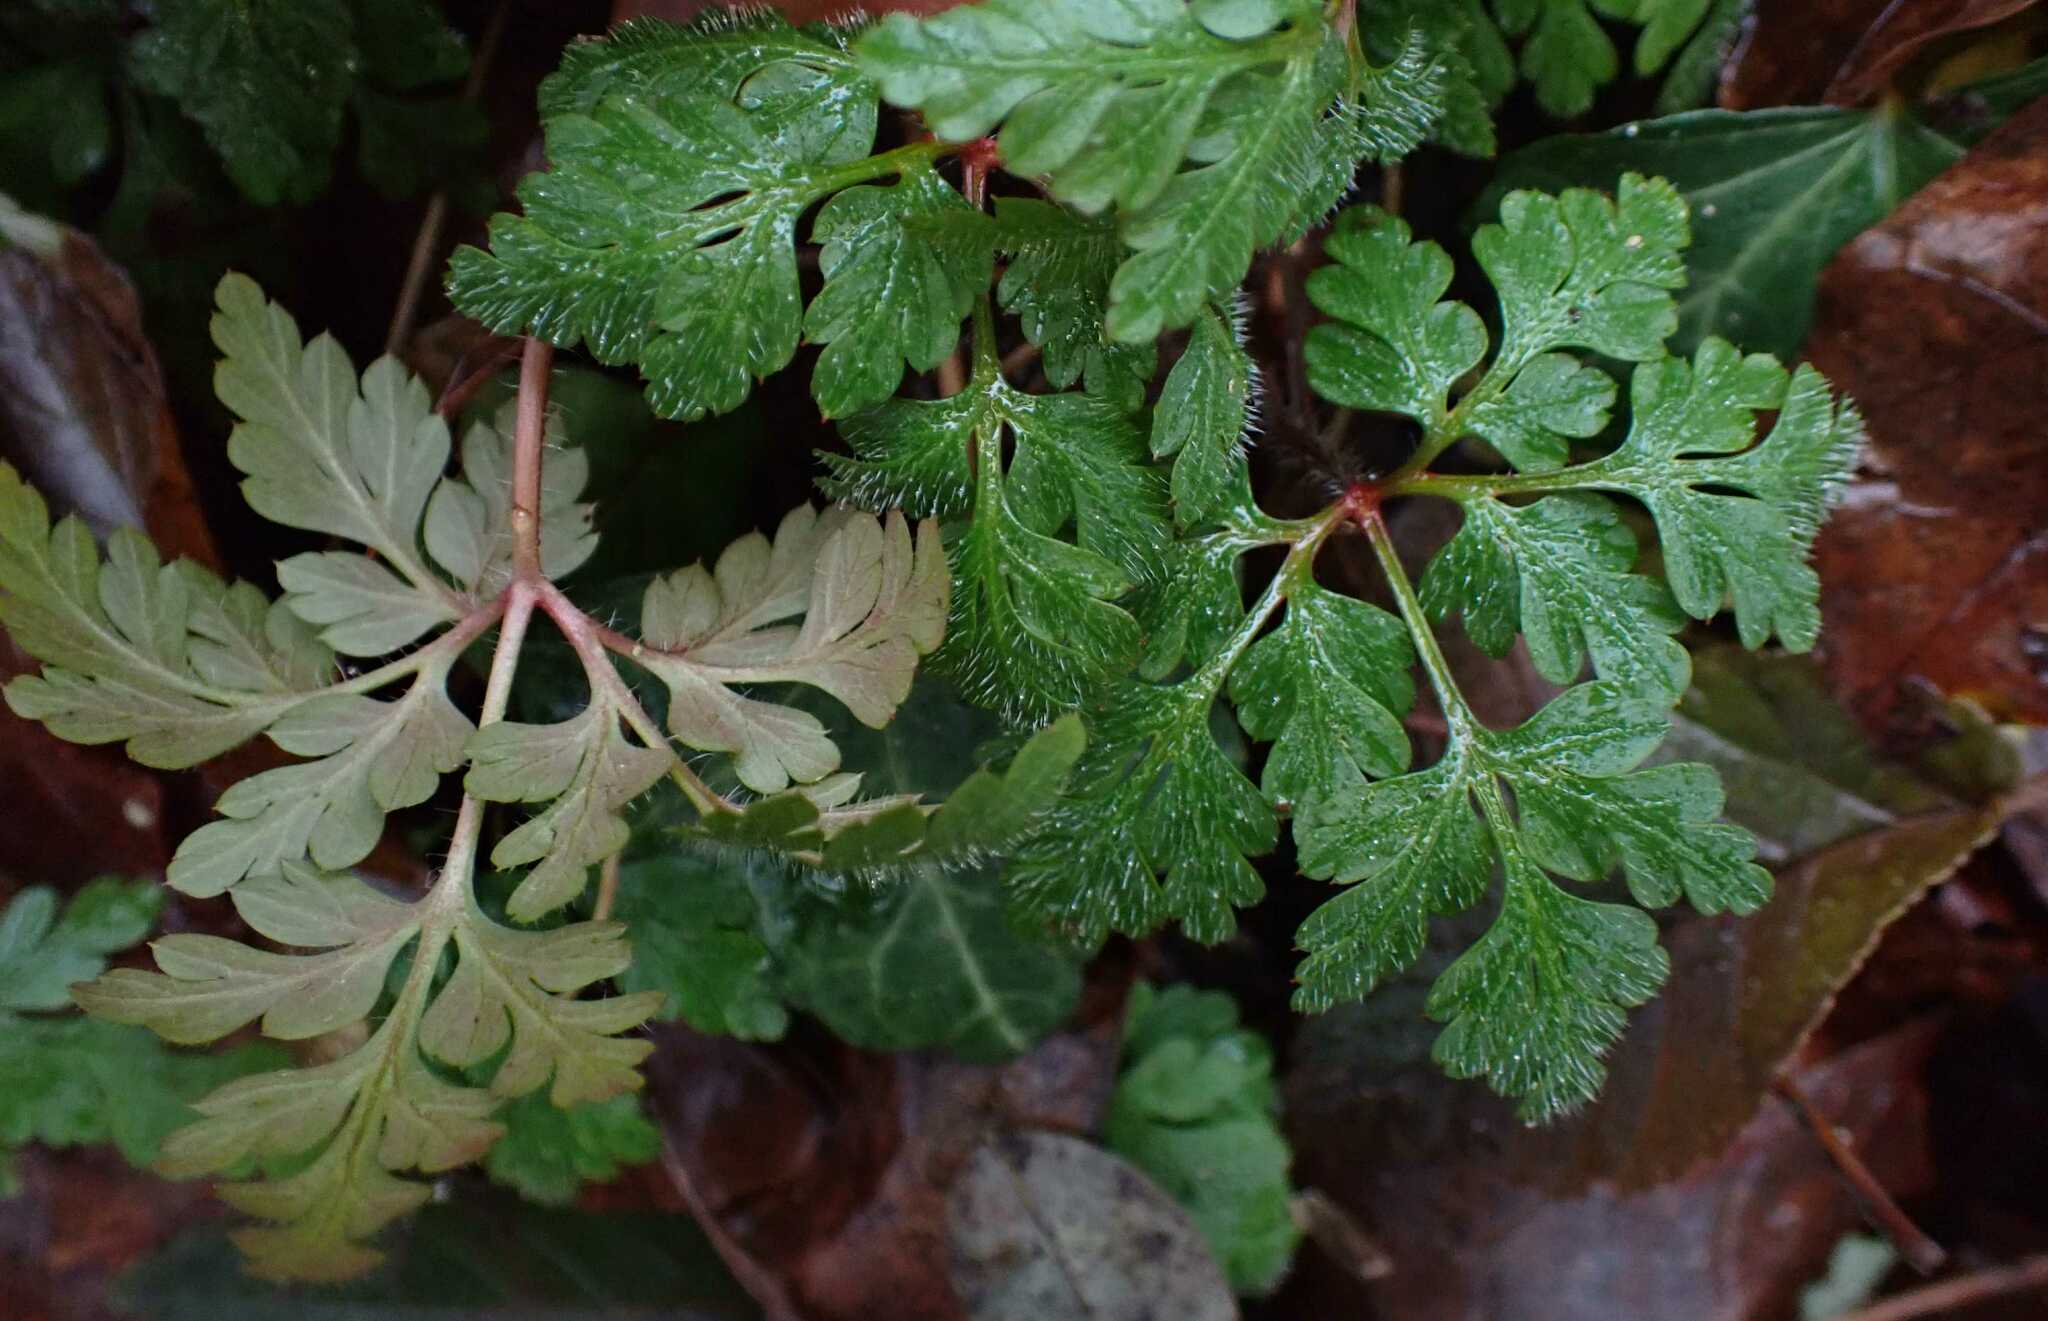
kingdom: Plantae
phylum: Tracheophyta
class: Magnoliopsida
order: Geraniales
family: Geraniaceae
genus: Geranium
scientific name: Geranium robertianum
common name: Herb-robert
